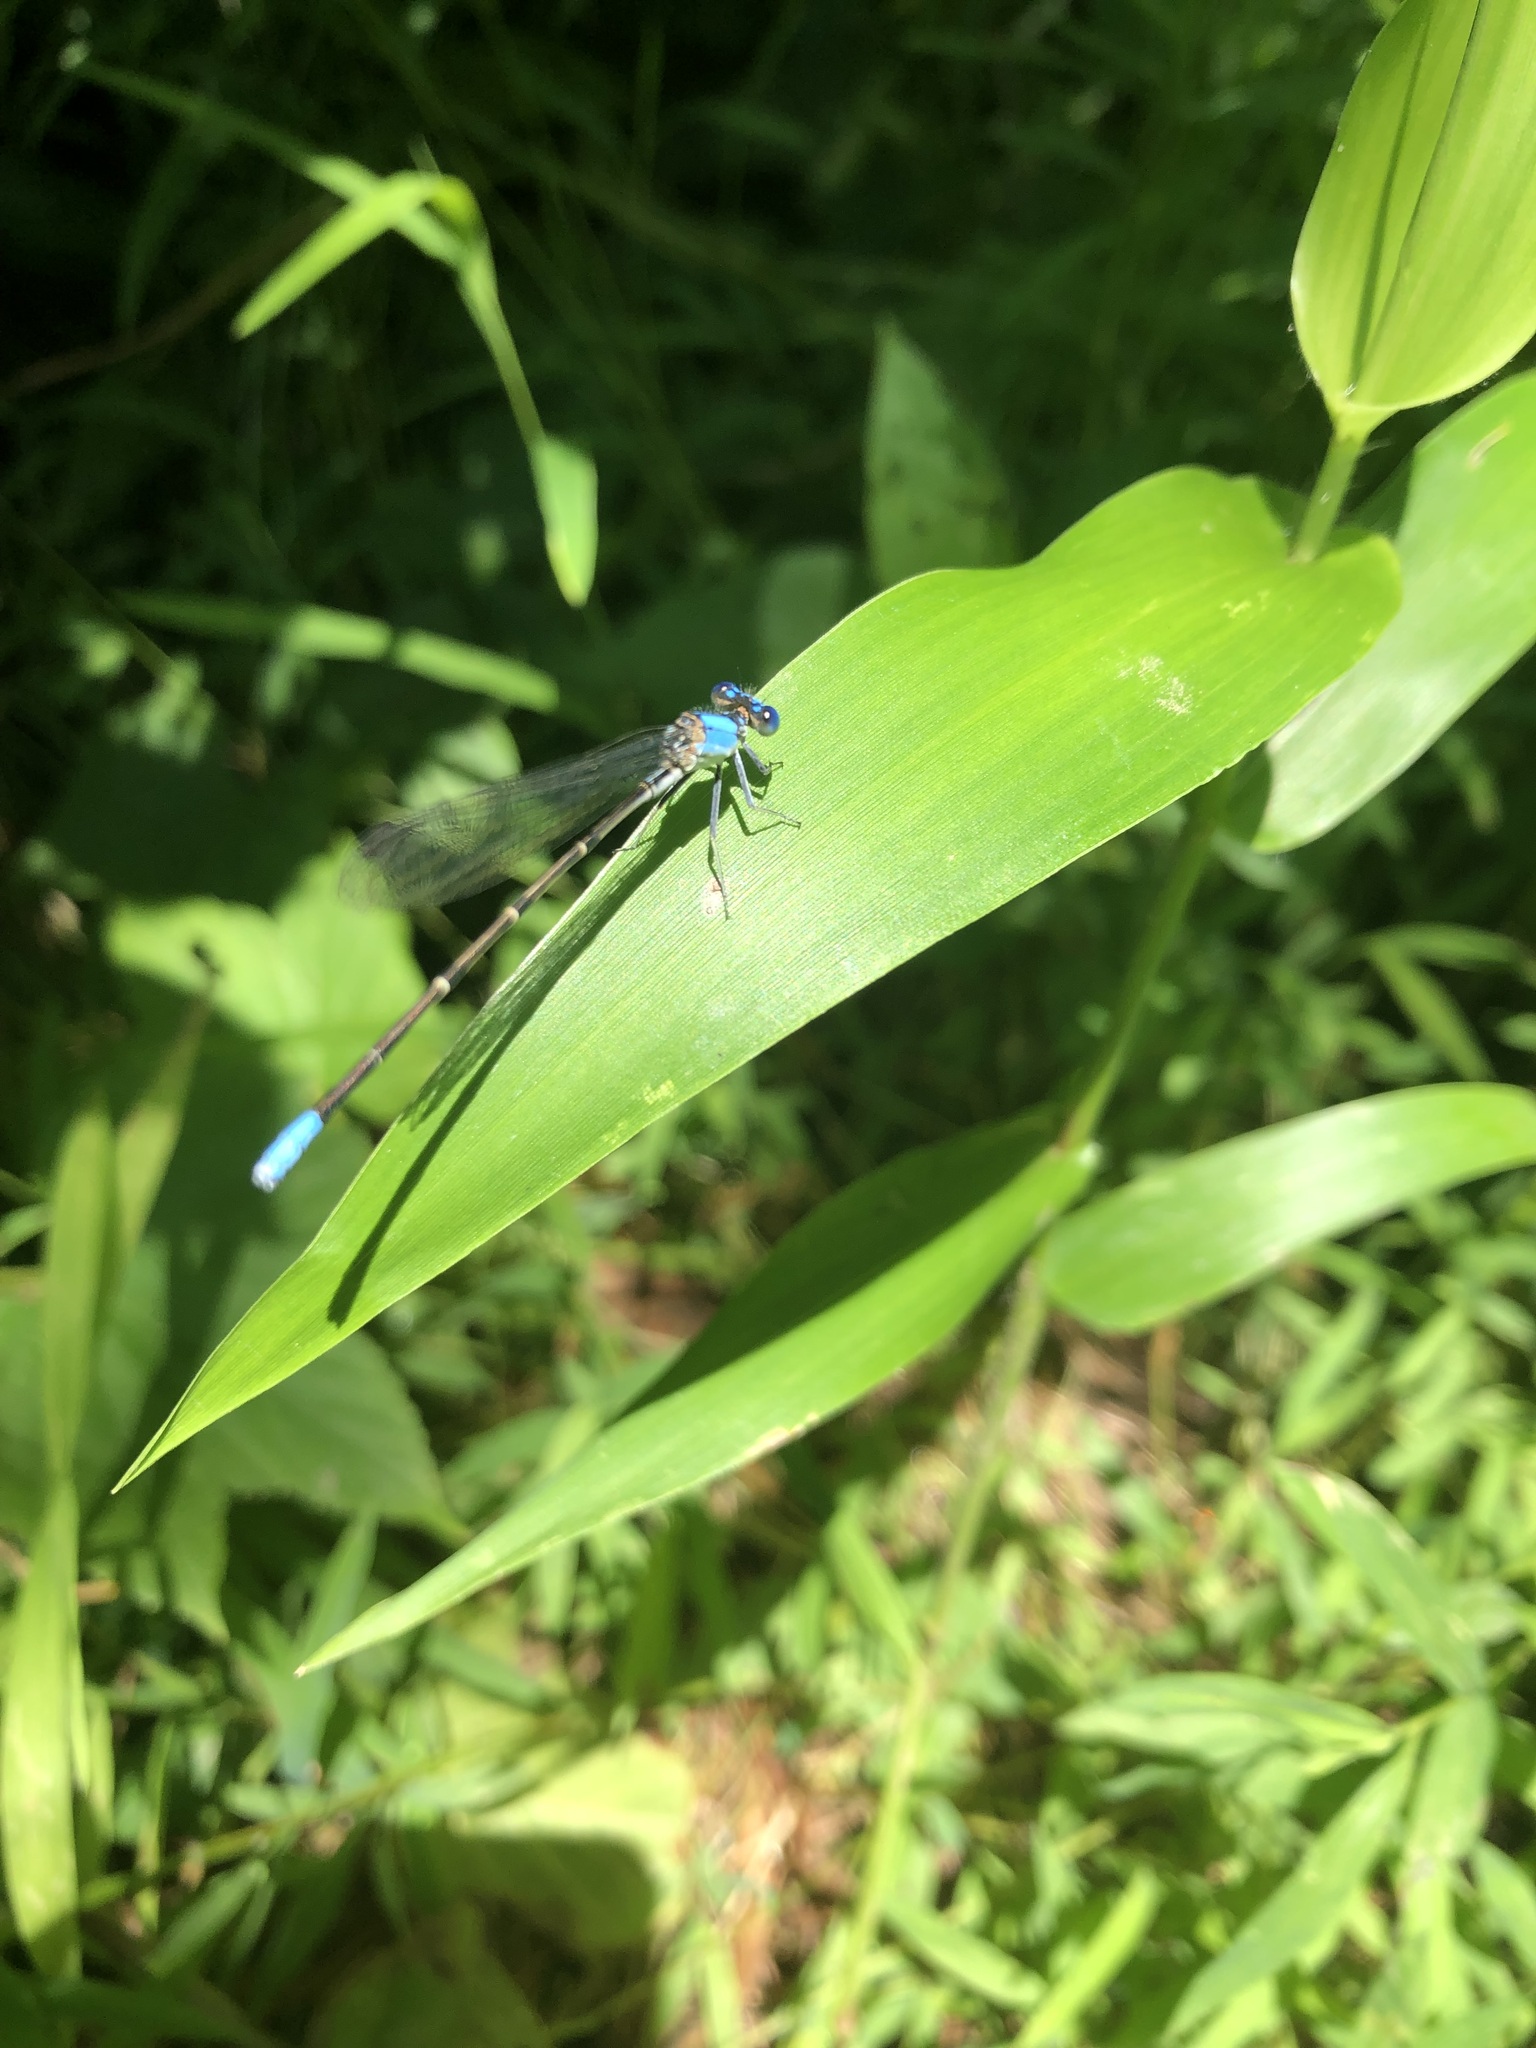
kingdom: Animalia
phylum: Arthropoda
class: Insecta
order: Odonata
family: Coenagrionidae
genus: Argia
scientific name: Argia apicalis
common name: Blue-fronted dancer
